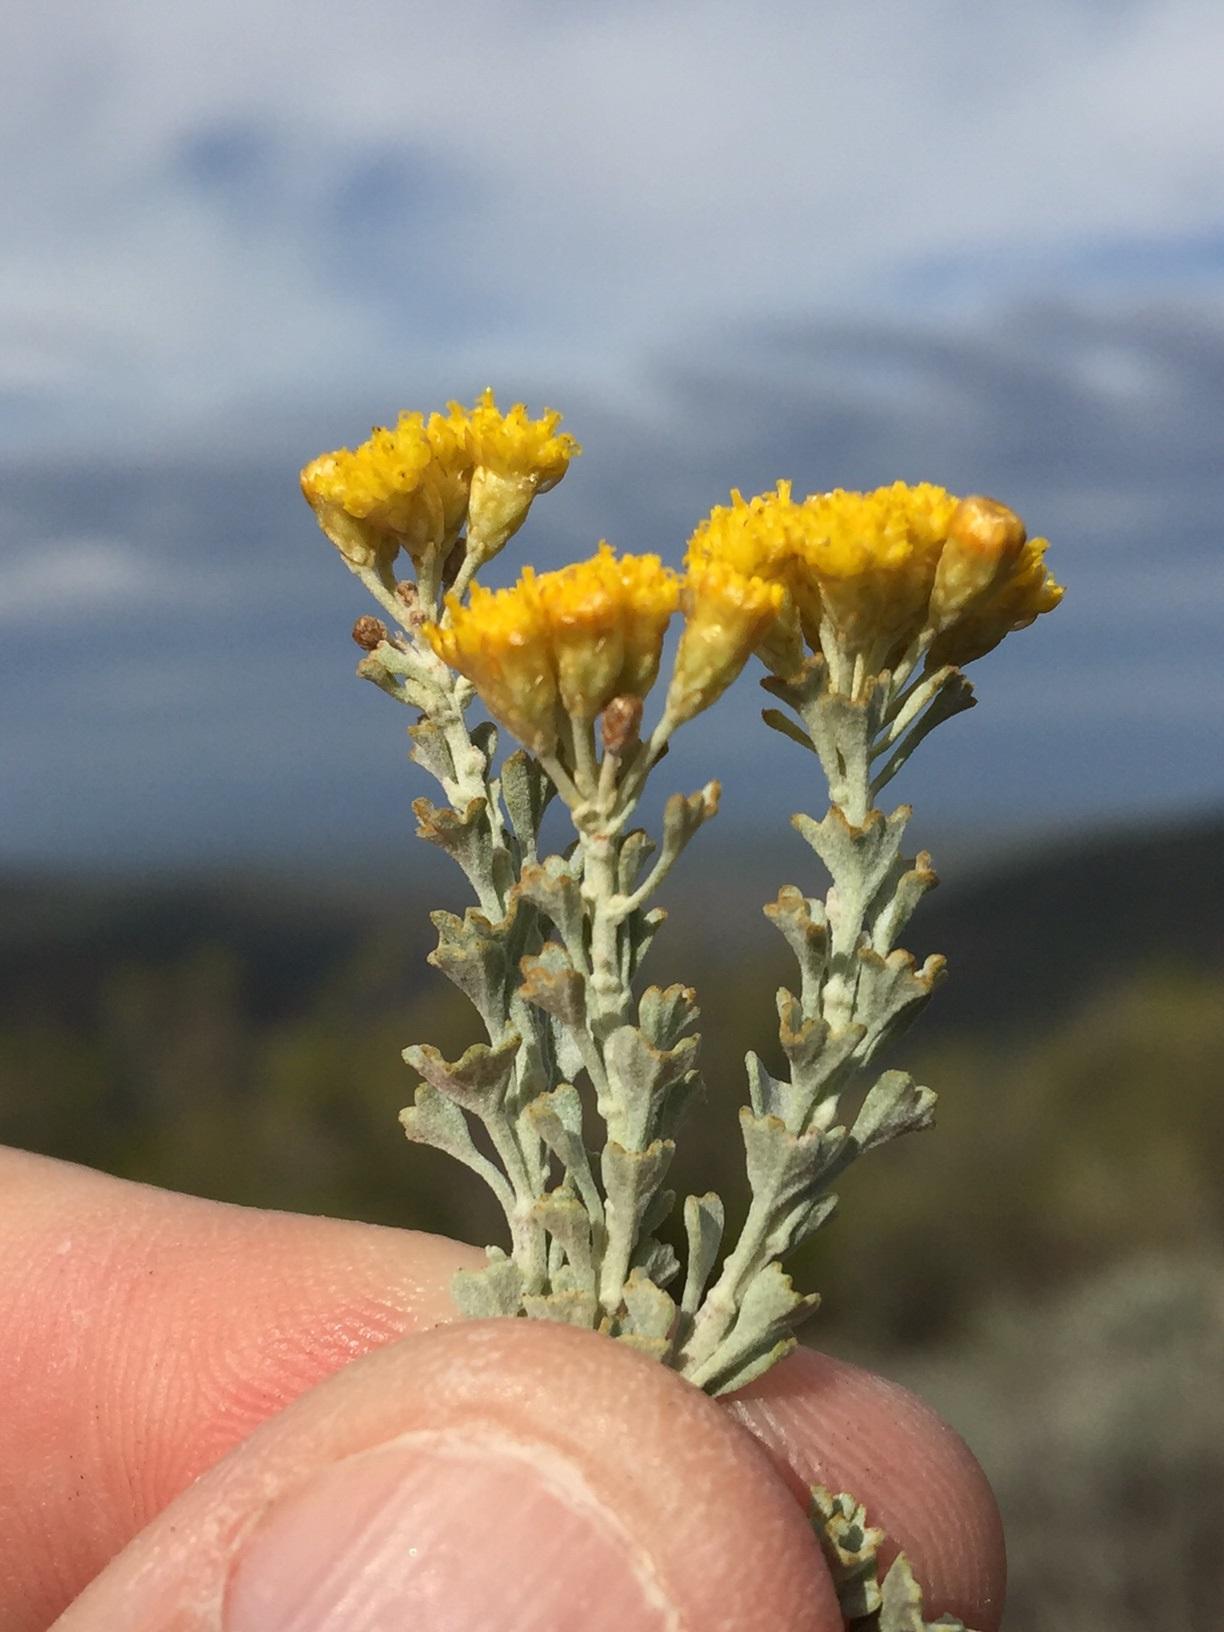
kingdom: Plantae
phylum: Tracheophyta
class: Magnoliopsida
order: Asterales
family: Asteraceae
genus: Pentzia
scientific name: Pentzia dentata
